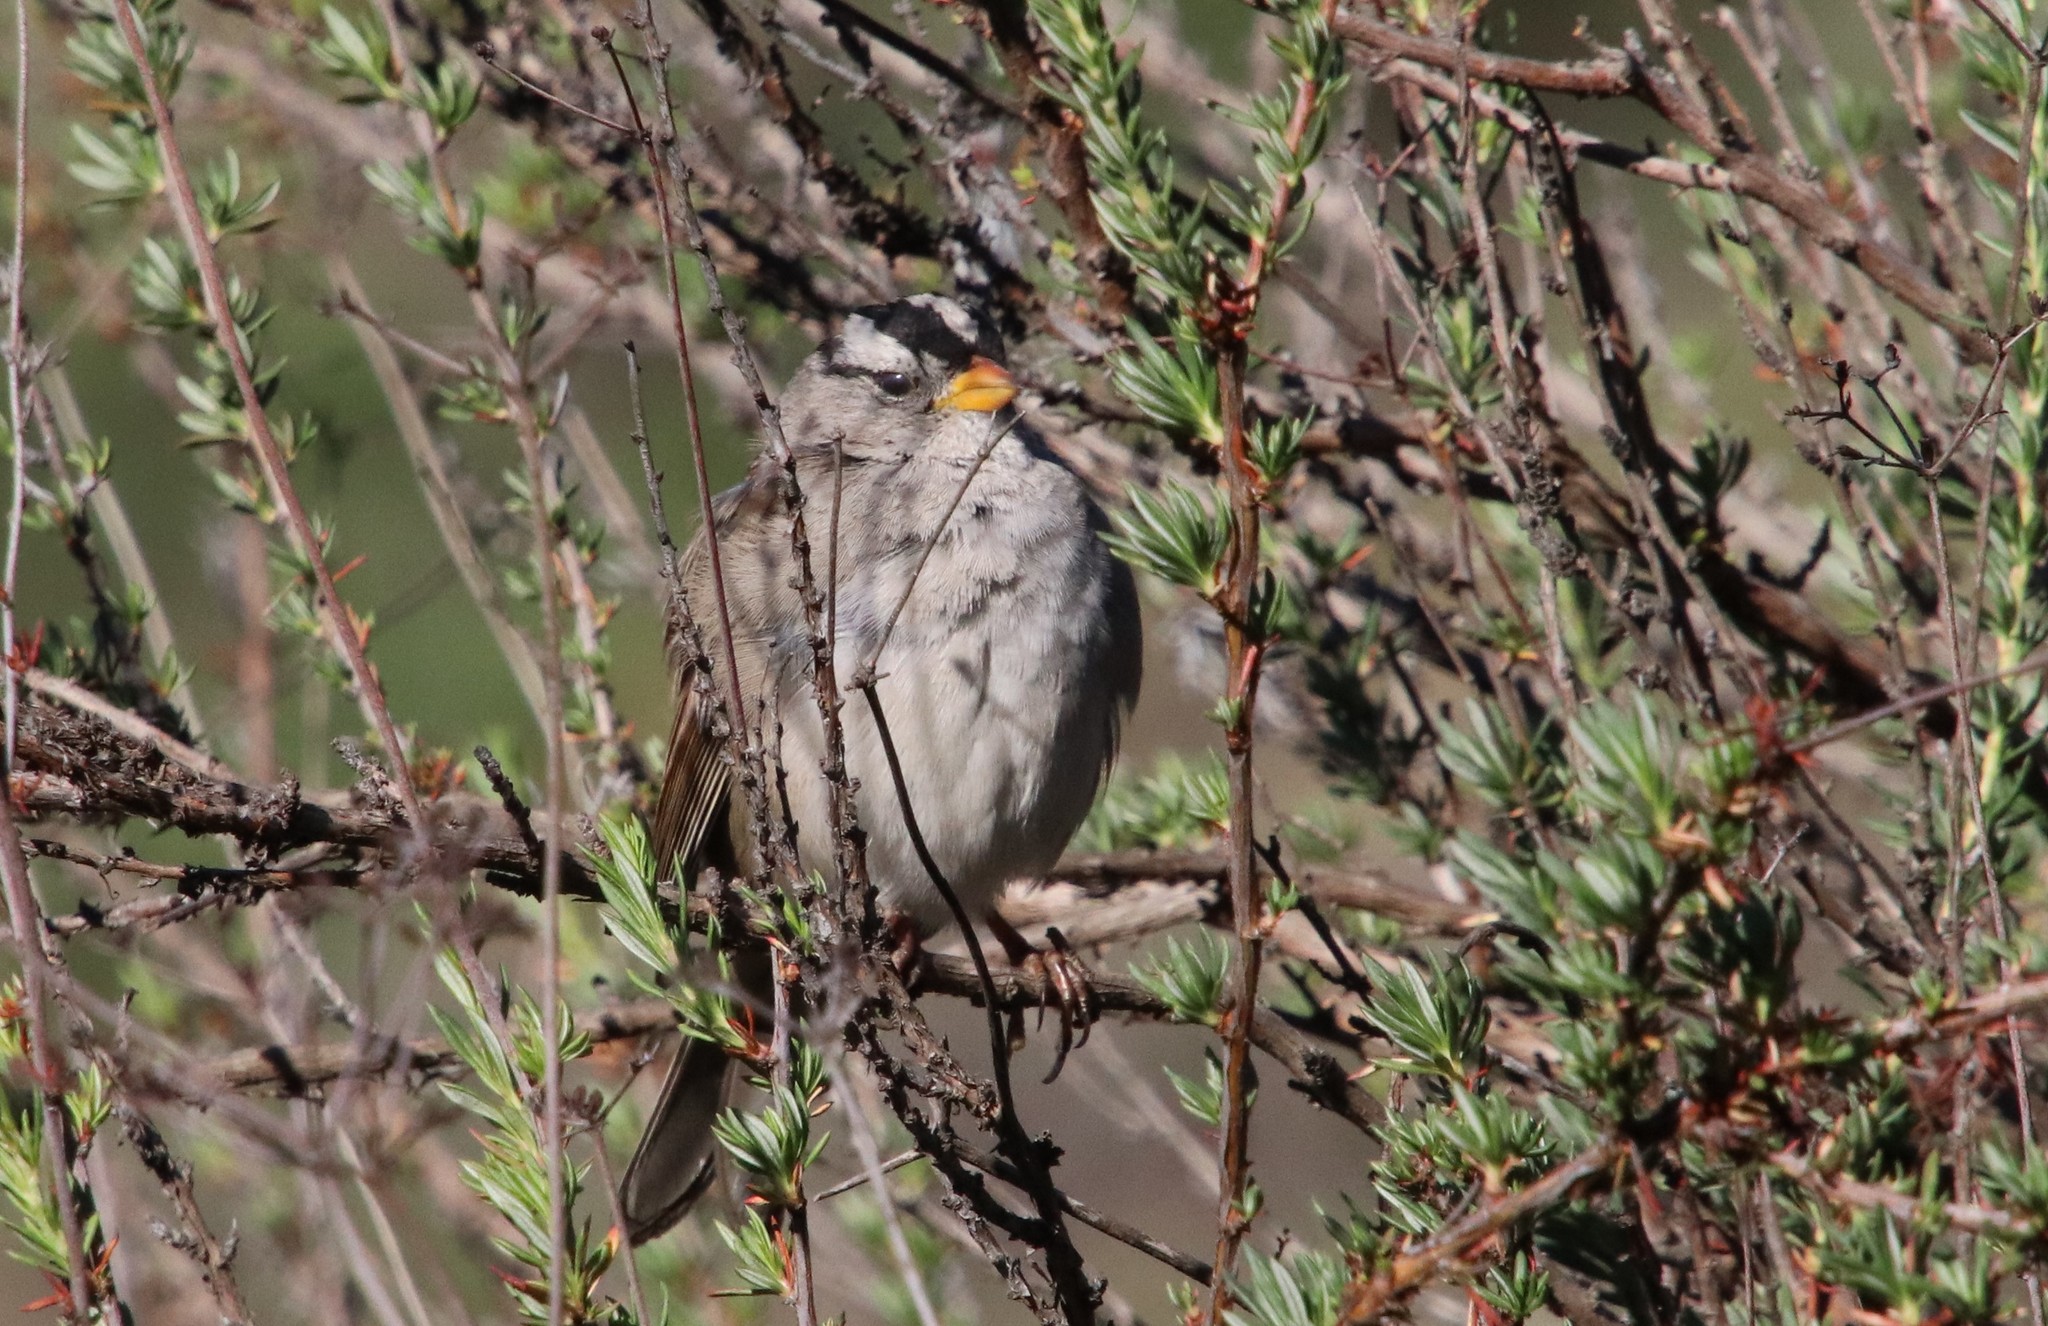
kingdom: Animalia
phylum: Chordata
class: Aves
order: Passeriformes
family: Passerellidae
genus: Zonotrichia
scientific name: Zonotrichia leucophrys
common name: White-crowned sparrow
